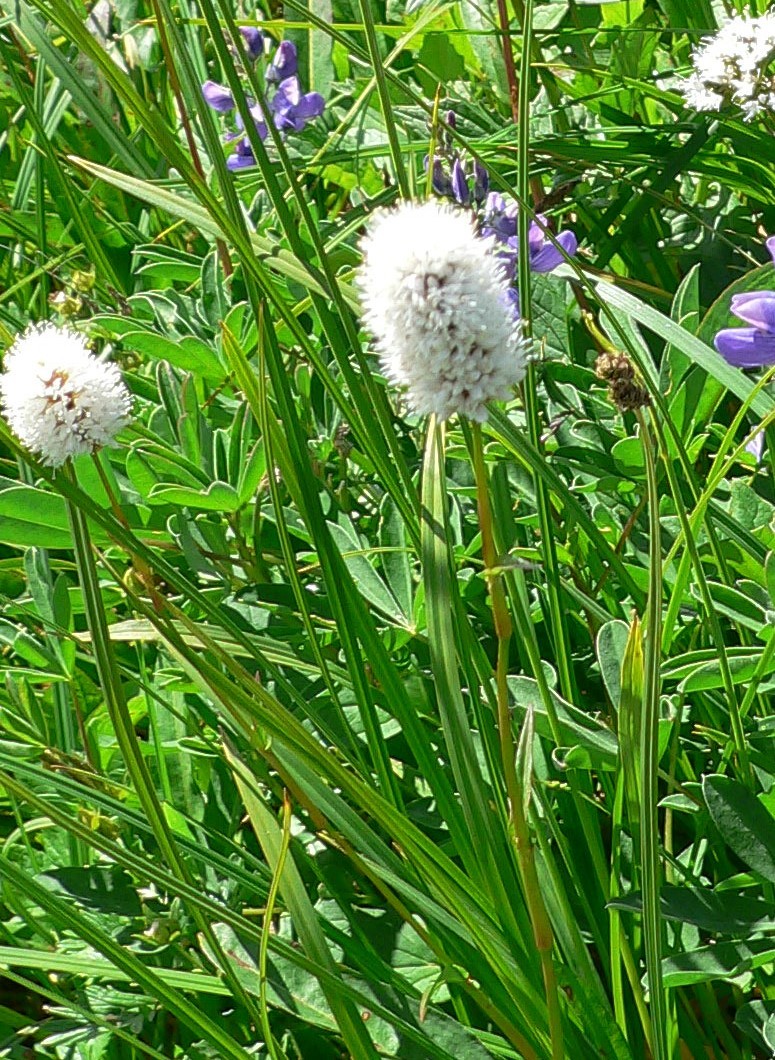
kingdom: Plantae
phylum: Tracheophyta
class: Magnoliopsida
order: Caryophyllales
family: Polygonaceae
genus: Bistorta
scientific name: Bistorta bistortoides
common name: American bistort
